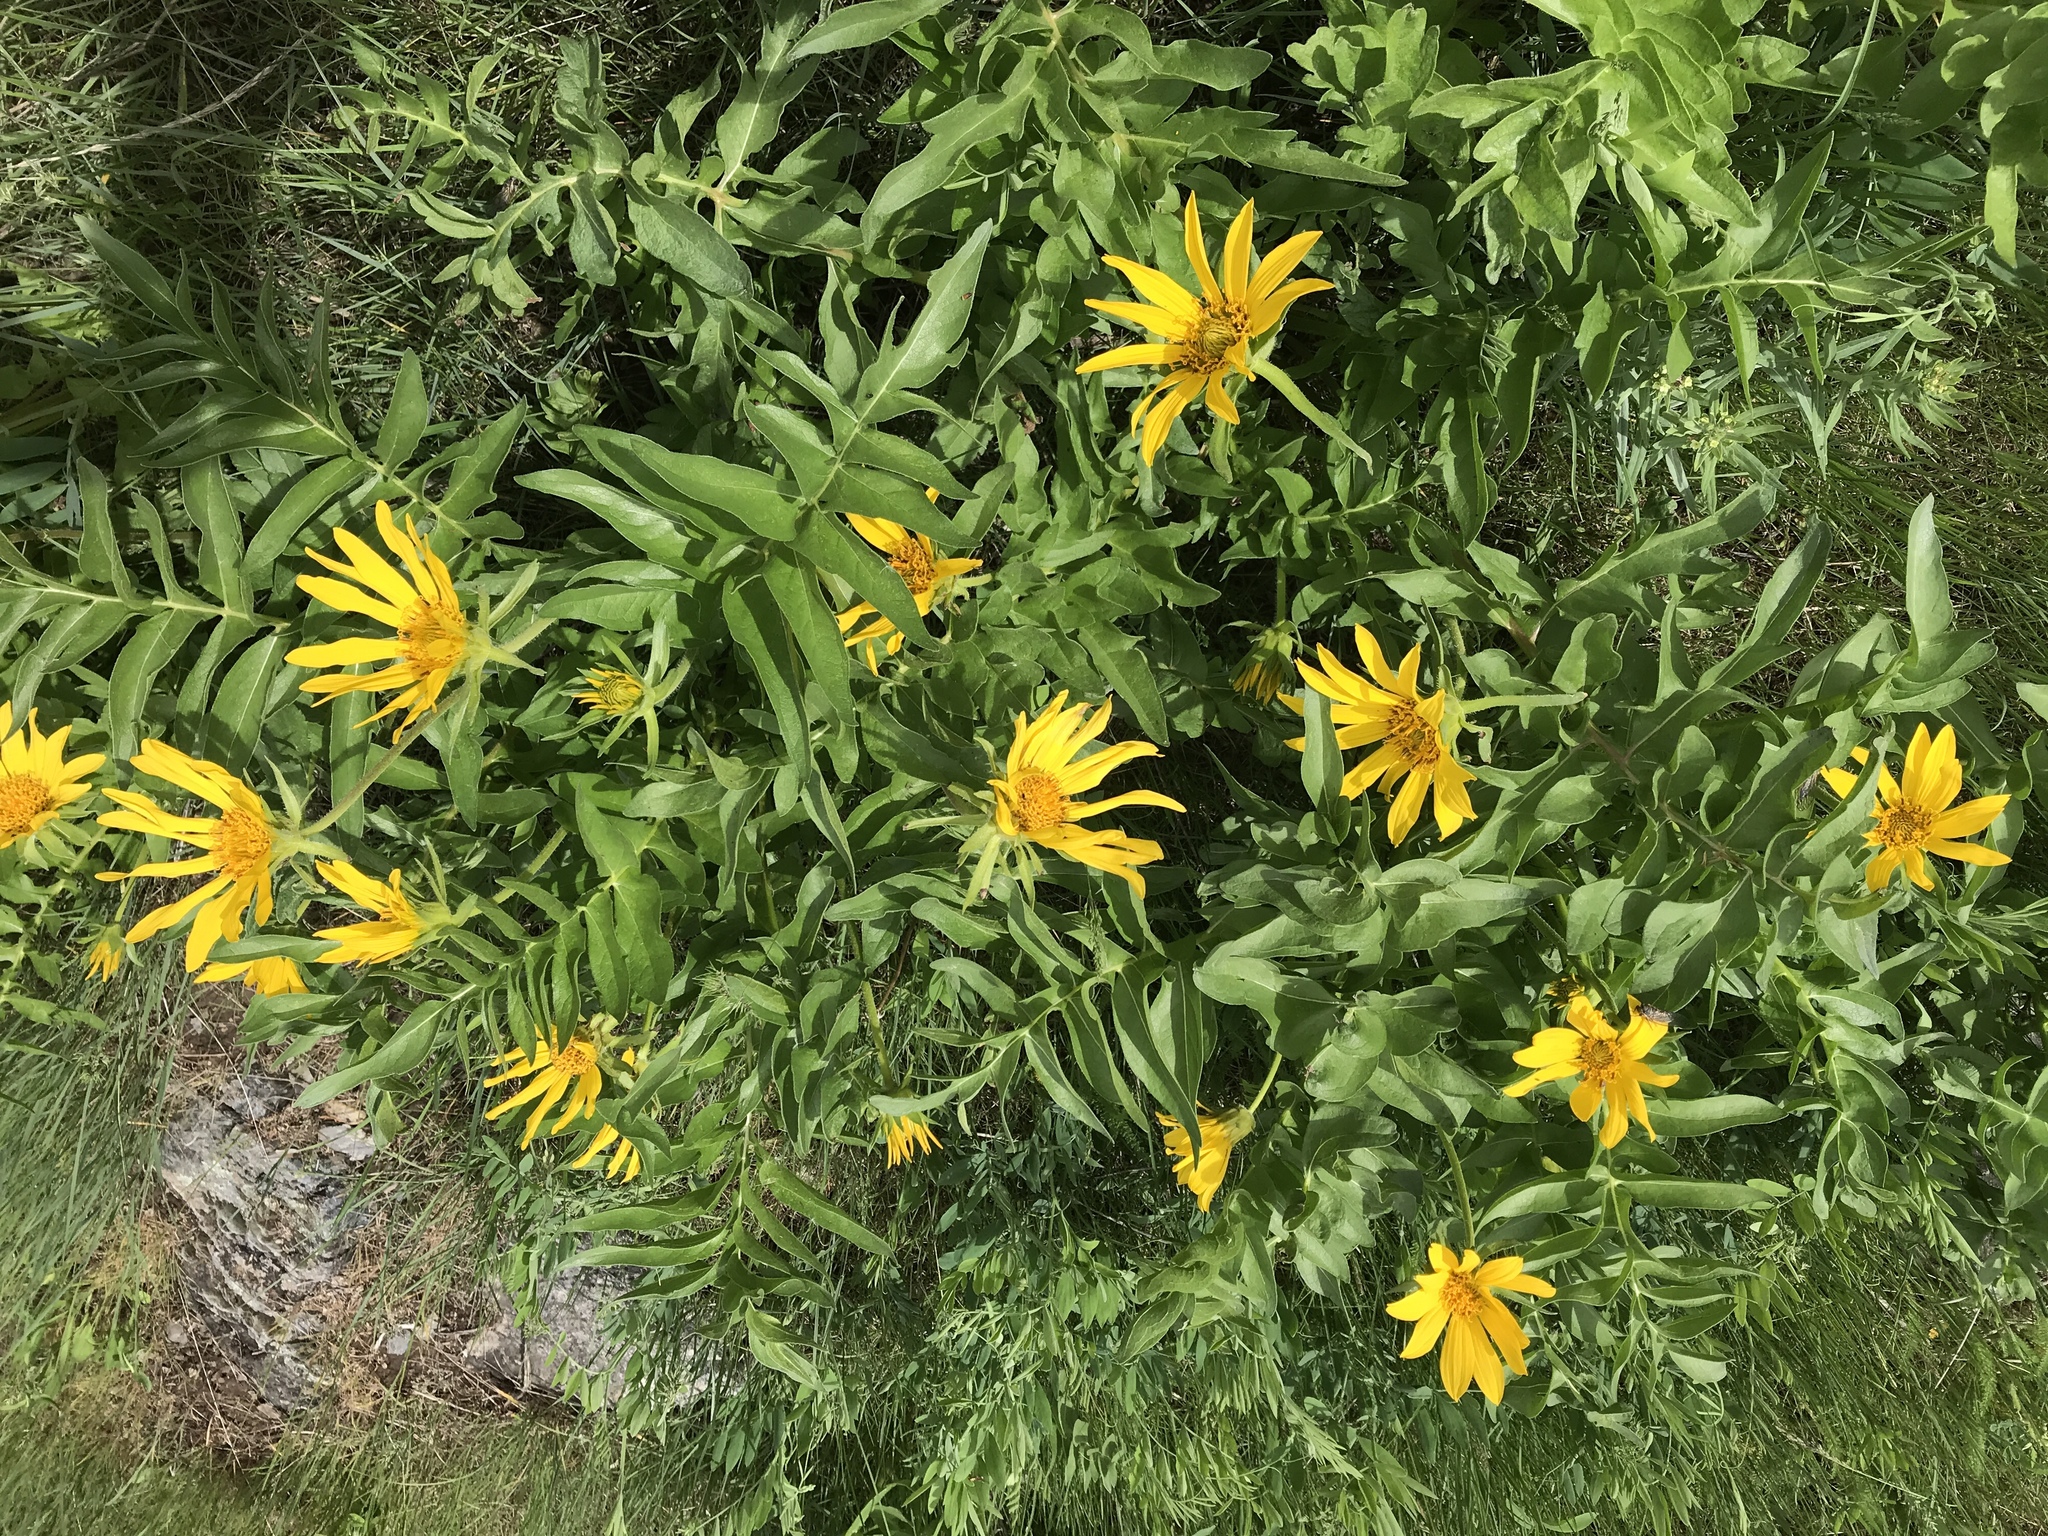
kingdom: Plantae
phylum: Tracheophyta
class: Magnoliopsida
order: Asterales
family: Asteraceae
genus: Balsamorhiza
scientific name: Balsamorhiza macrophylla
